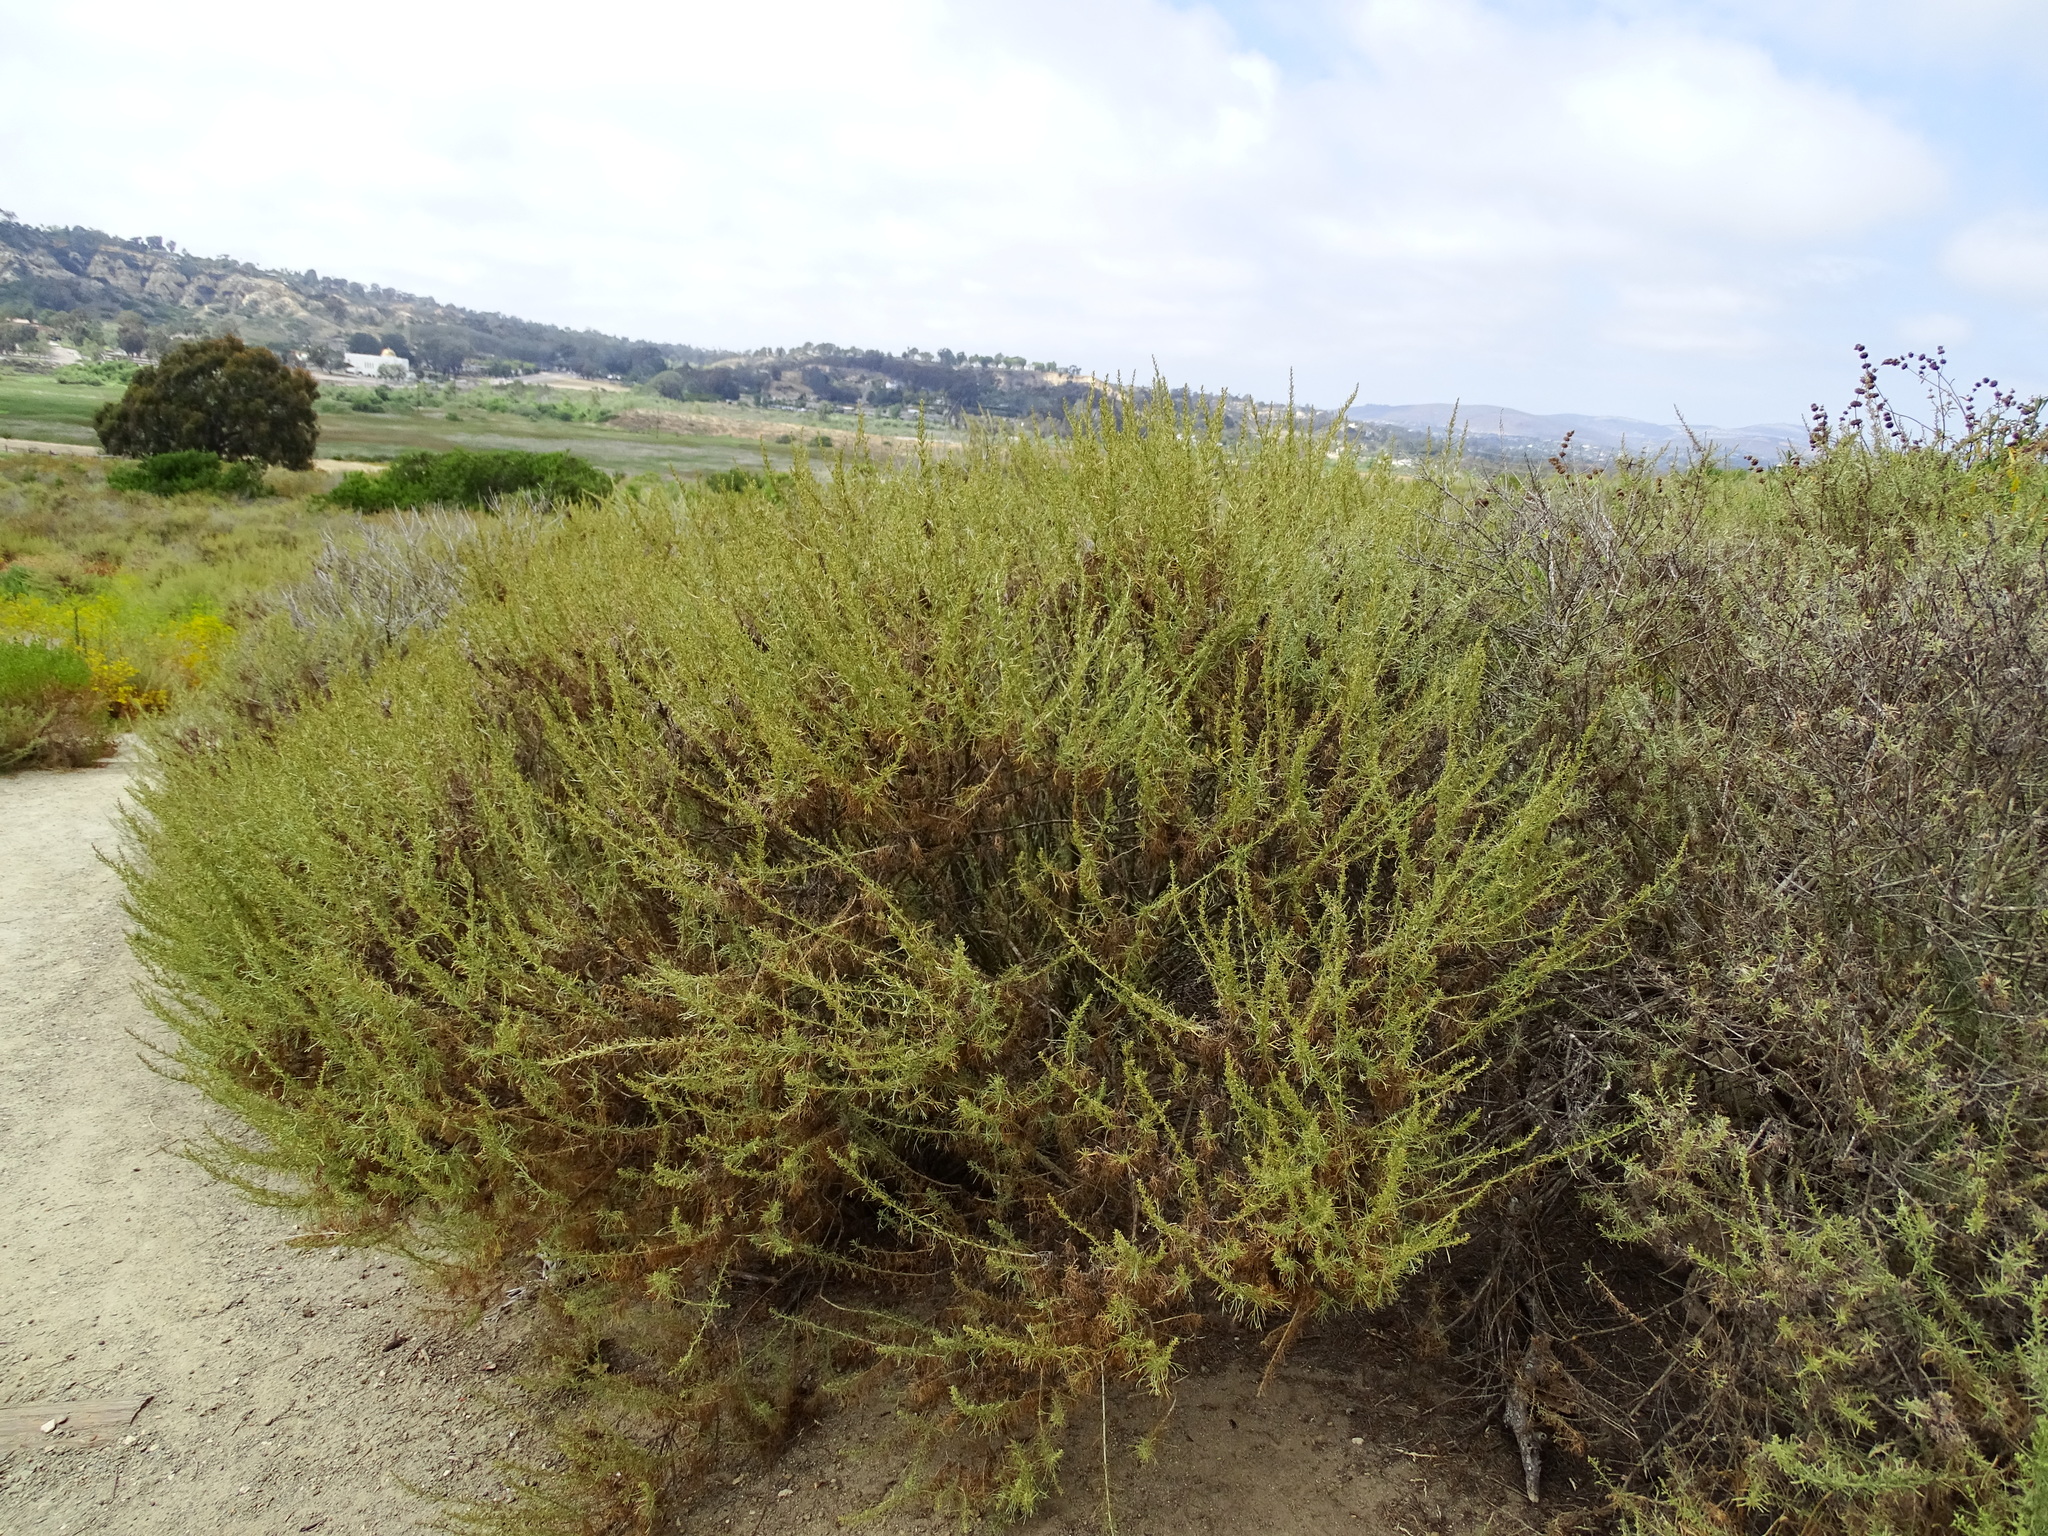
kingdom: Plantae
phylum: Tracheophyta
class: Magnoliopsida
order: Asterales
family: Asteraceae
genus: Artemisia
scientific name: Artemisia californica
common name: California sagebrush
